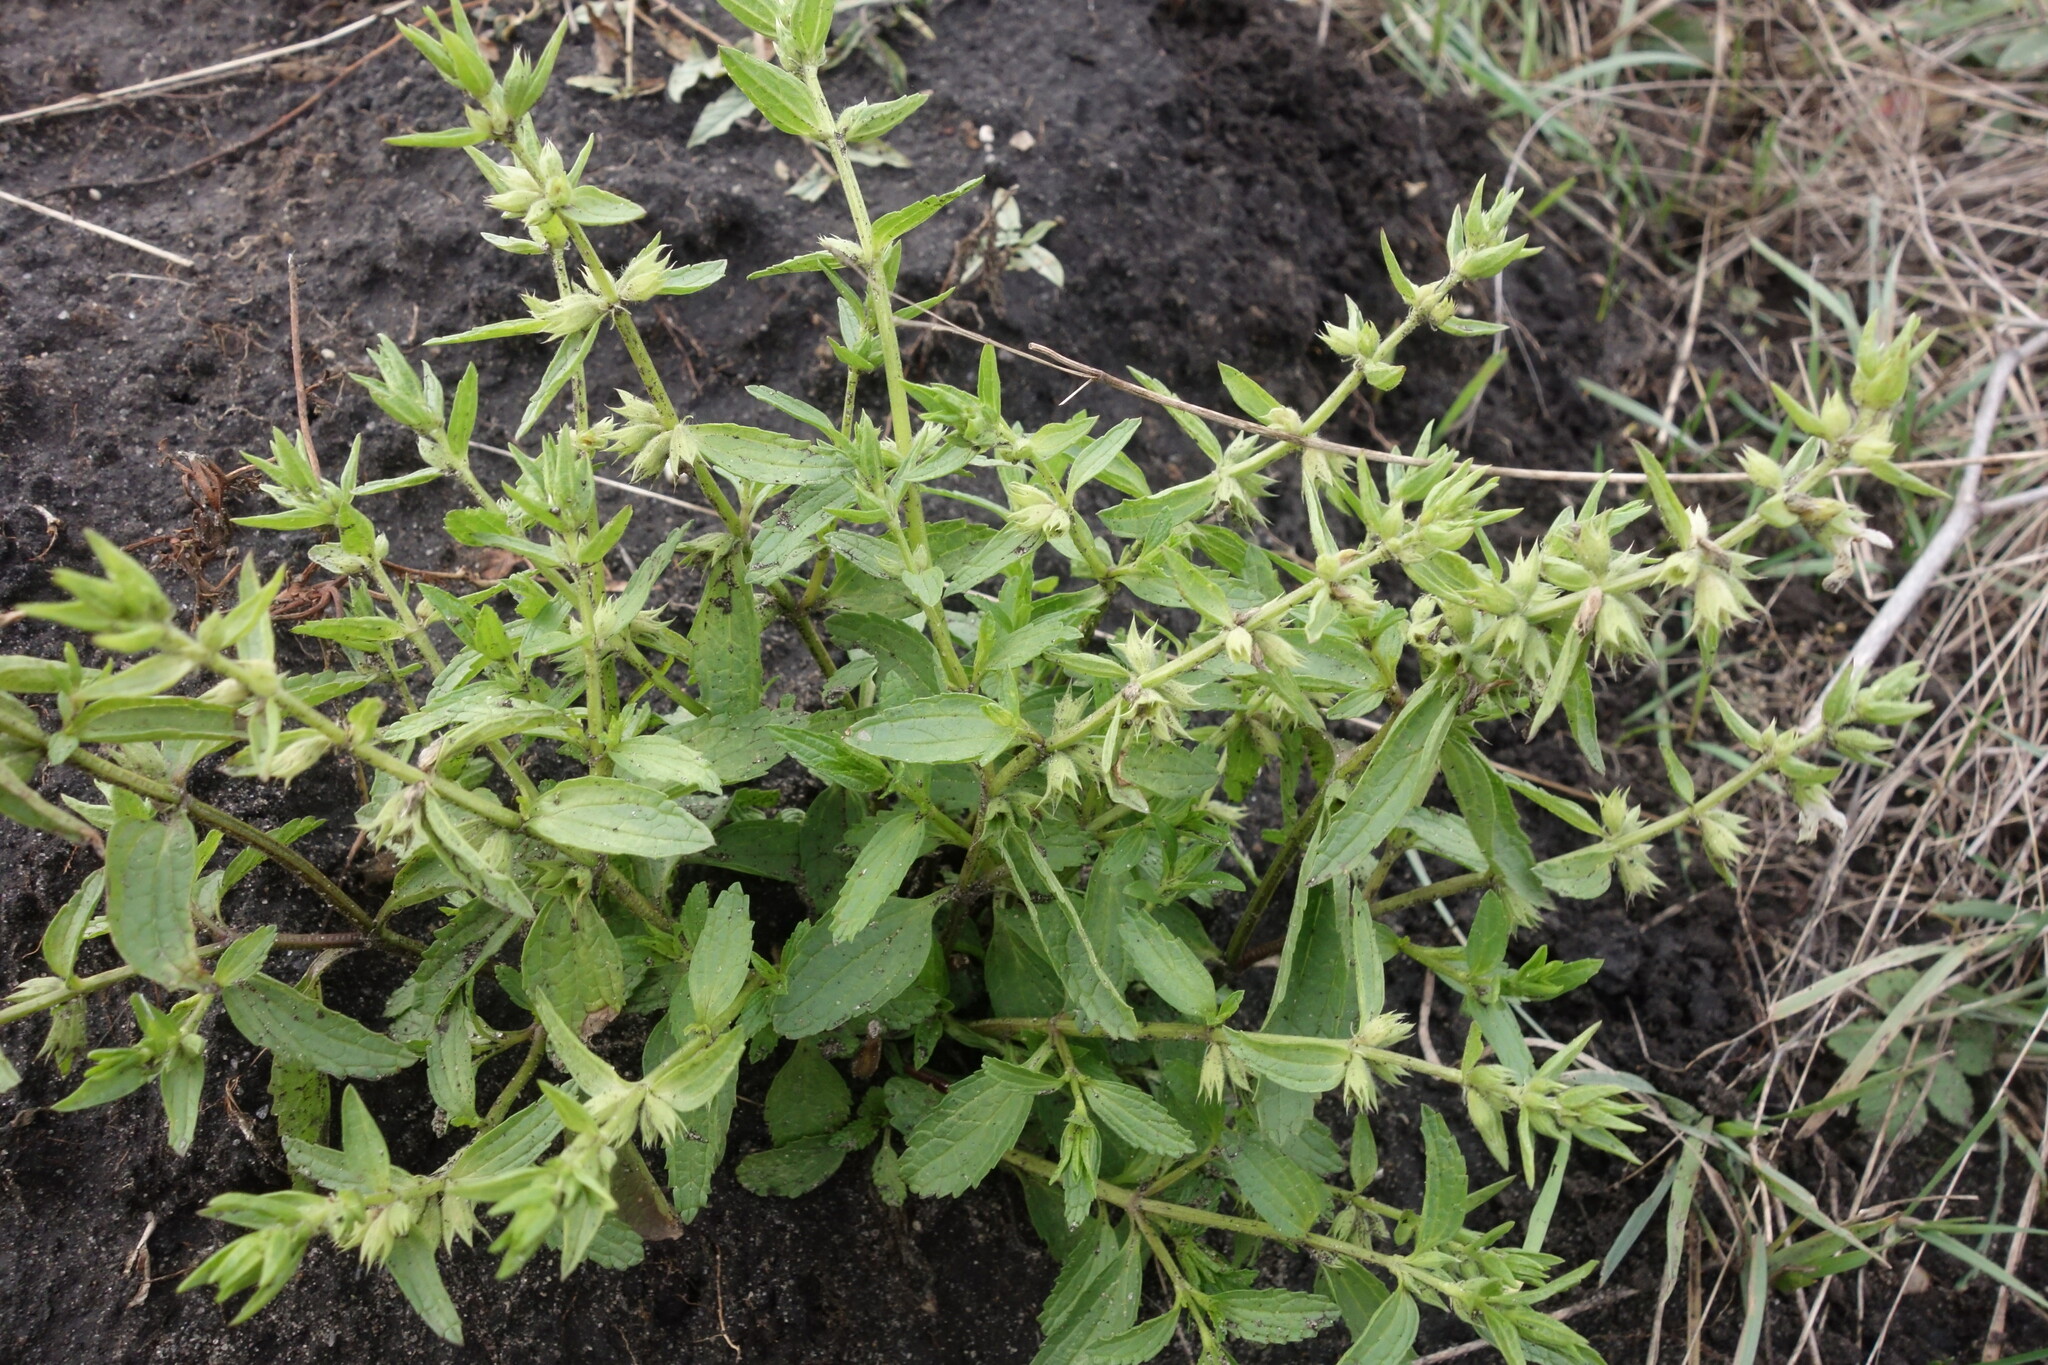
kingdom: Plantae
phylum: Tracheophyta
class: Magnoliopsida
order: Lamiales
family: Lamiaceae
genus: Stachys
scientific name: Stachys annua
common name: Annual yellow-woundwort
